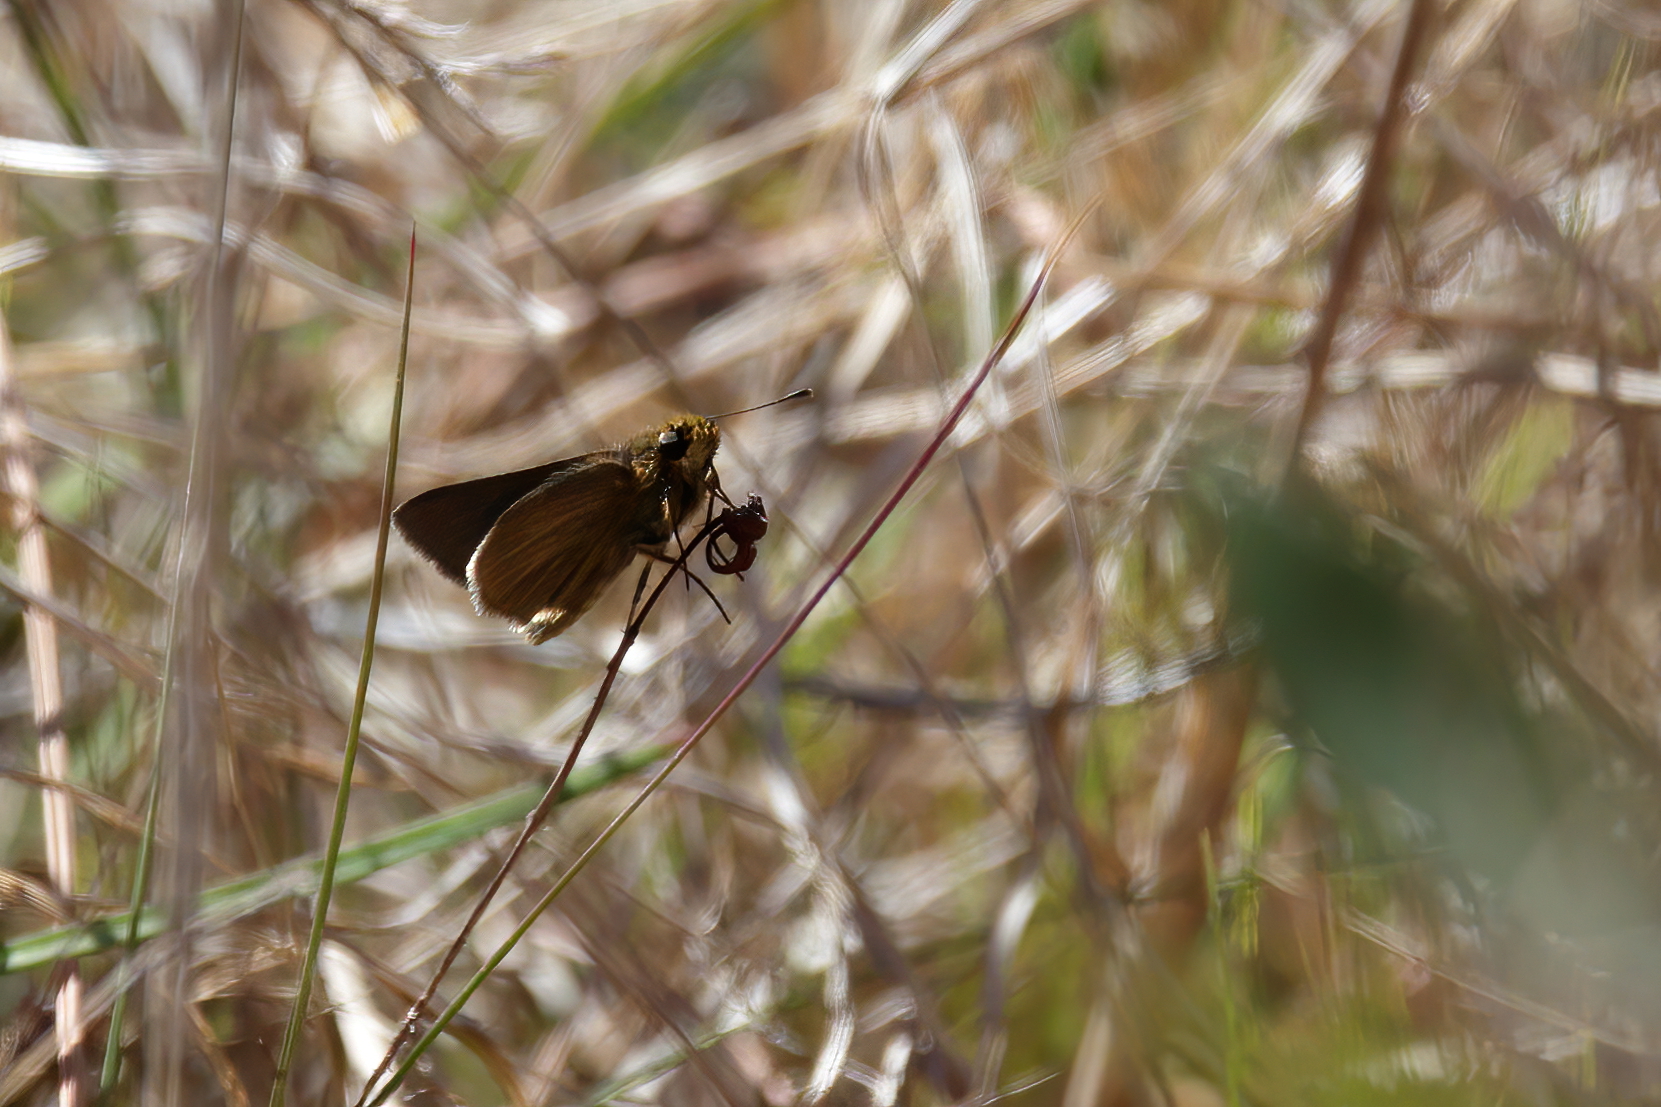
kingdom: Animalia
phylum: Arthropoda
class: Insecta
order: Lepidoptera
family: Hesperiidae
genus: Nastra
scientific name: Nastra lherminier
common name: Swarthy skipper
